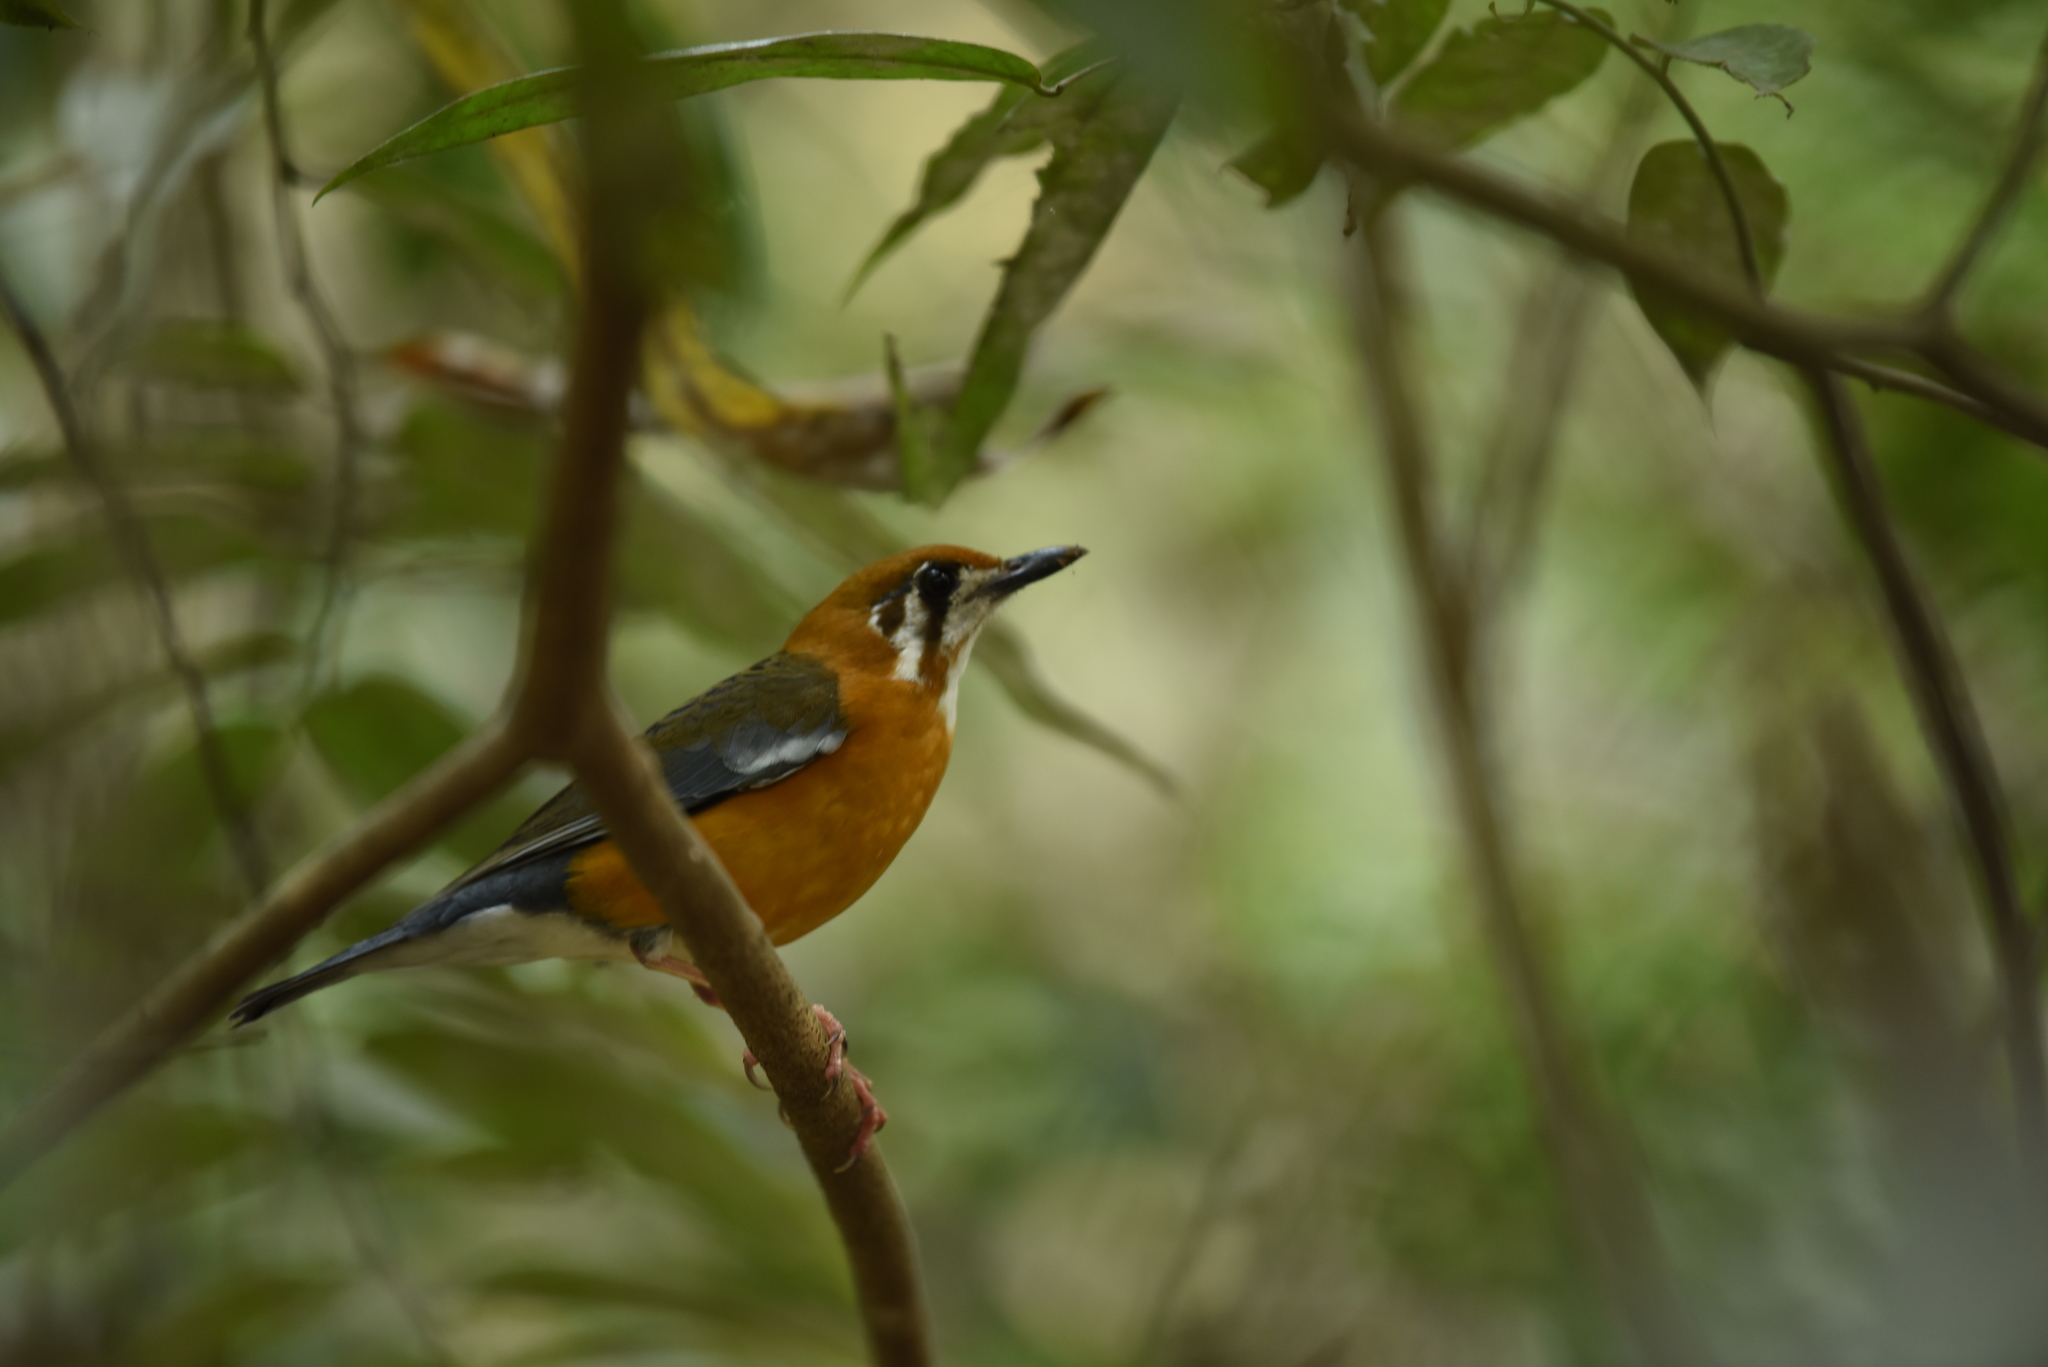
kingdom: Animalia
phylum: Chordata
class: Aves
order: Passeriformes
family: Turdidae
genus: Geokichla
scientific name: Geokichla citrina
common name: Orange-headed thrush
